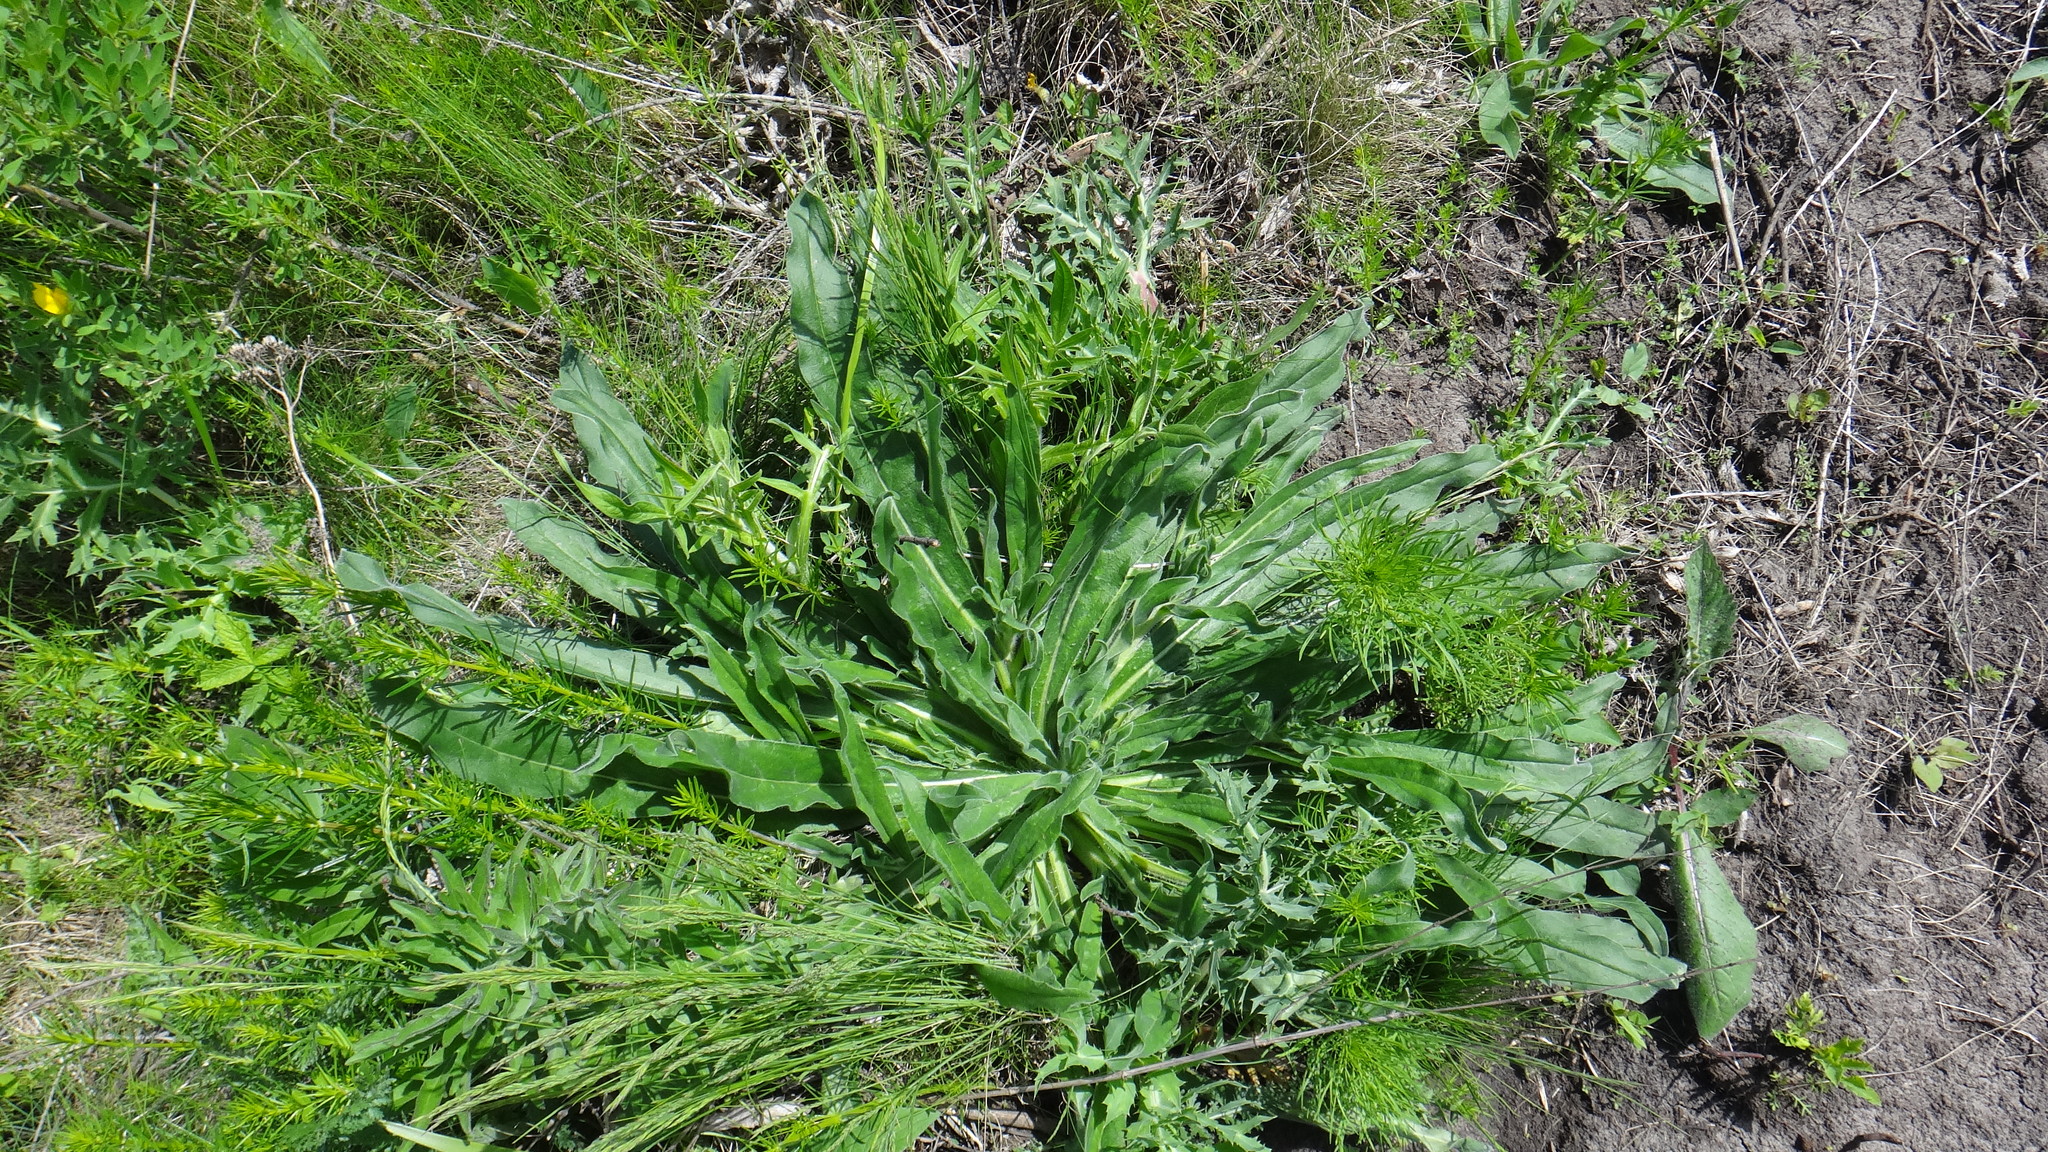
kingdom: Plantae
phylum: Tracheophyta
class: Magnoliopsida
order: Boraginales
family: Boraginaceae
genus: Echium
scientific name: Echium vulgare
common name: Common viper's bugloss
